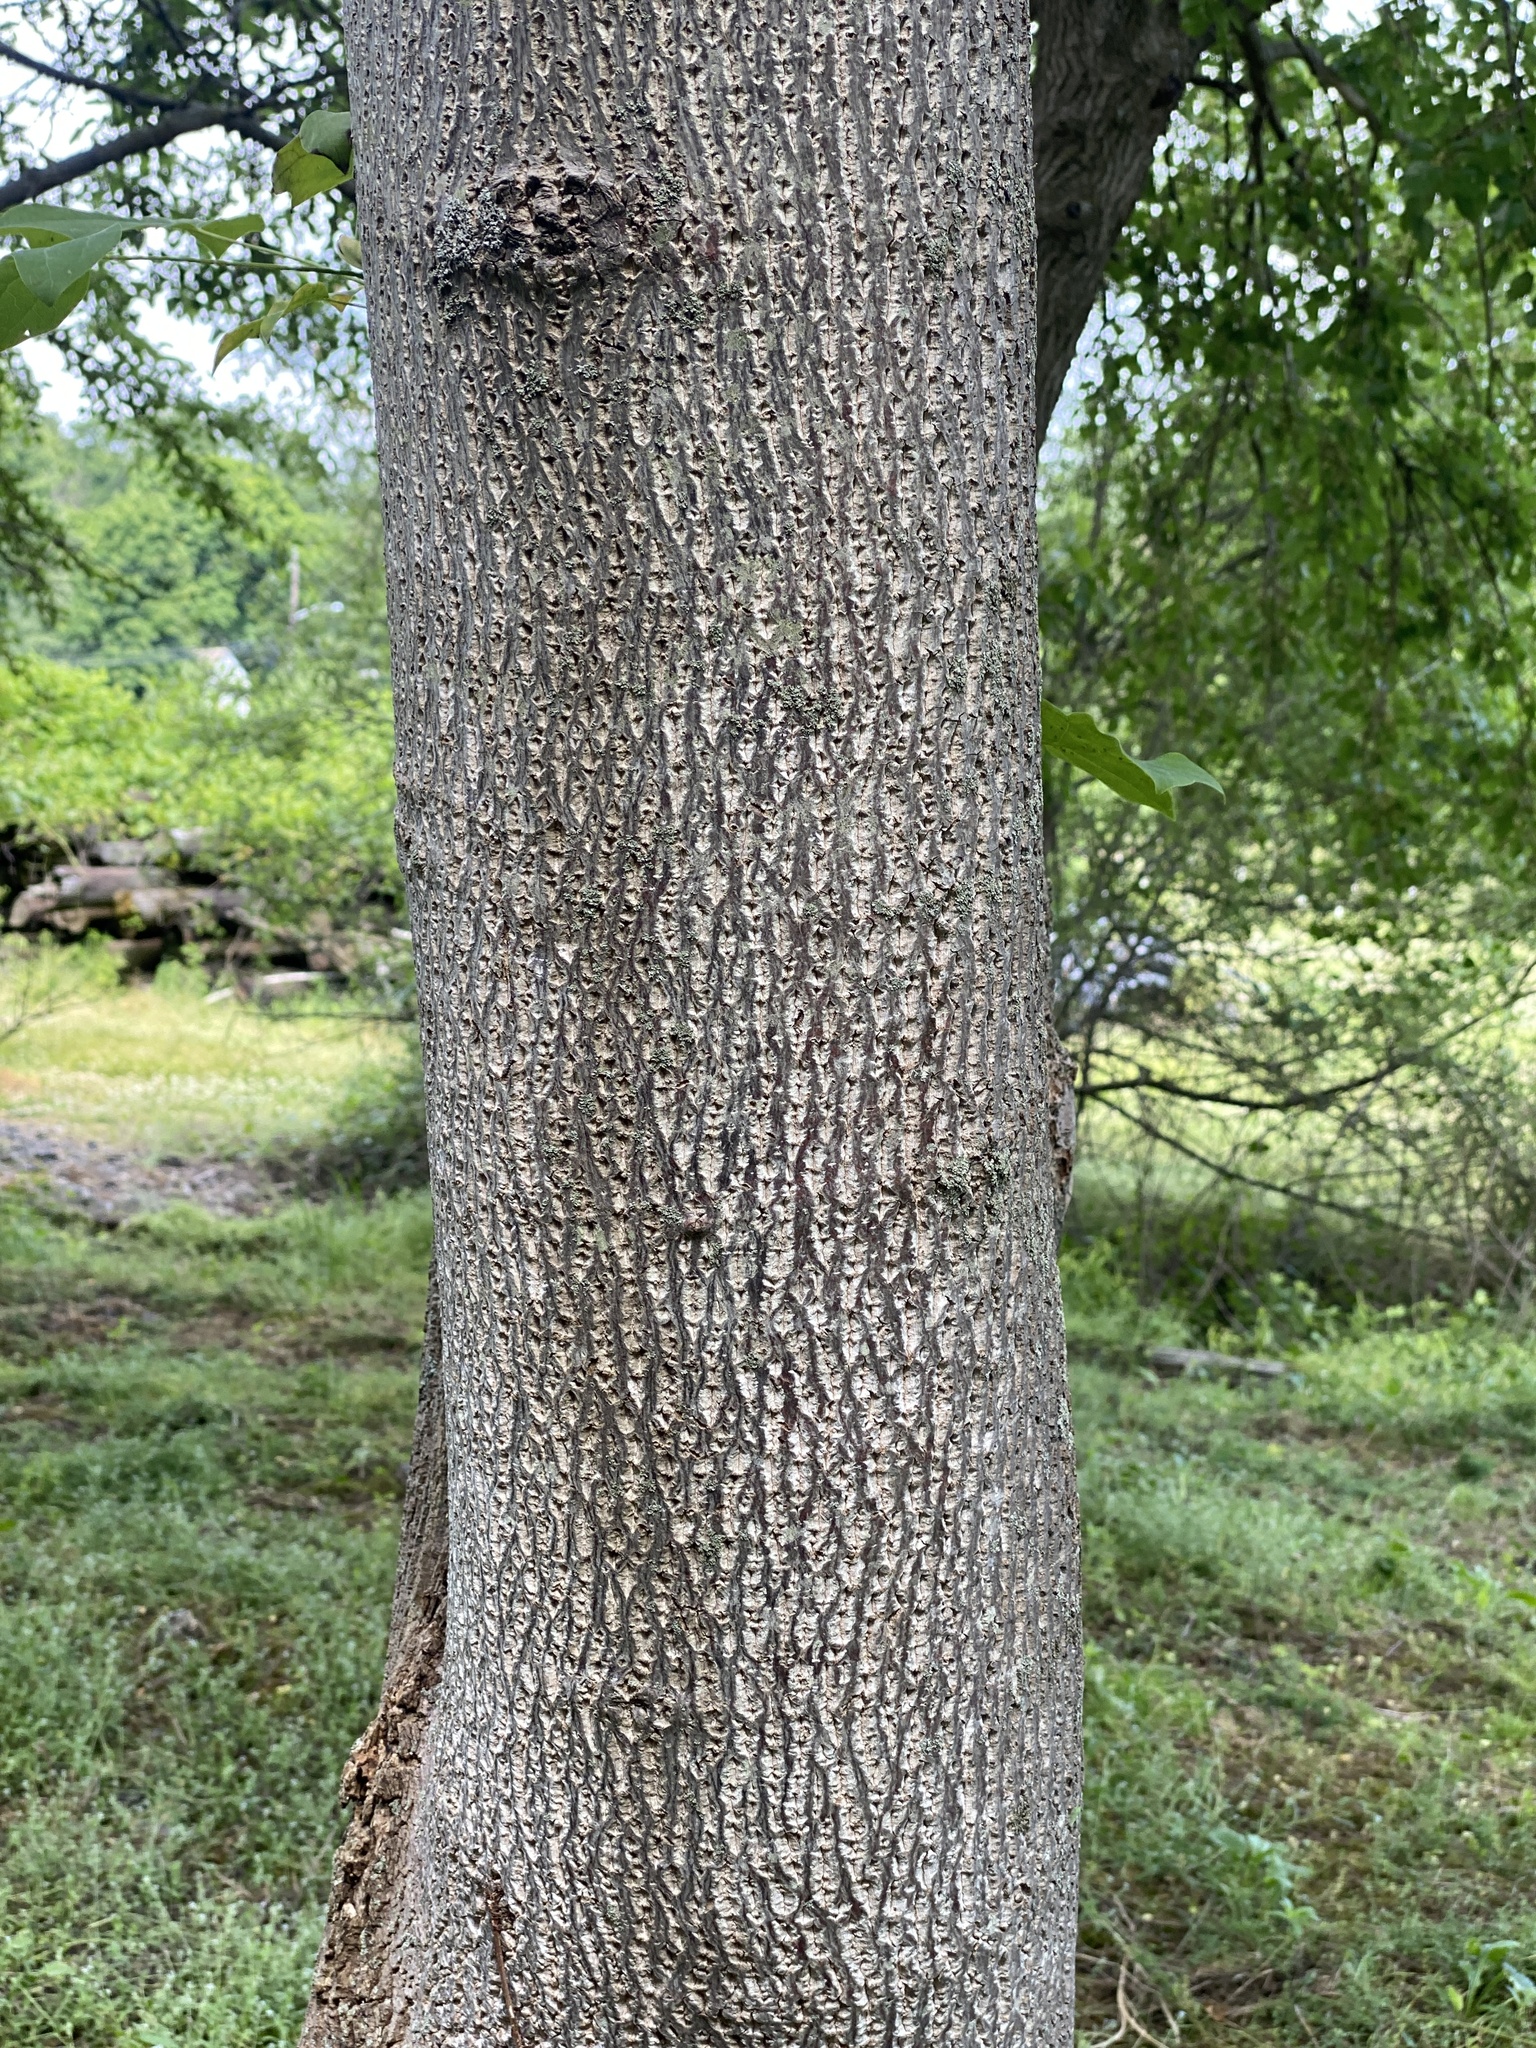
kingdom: Plantae
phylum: Tracheophyta
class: Magnoliopsida
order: Magnoliales
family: Magnoliaceae
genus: Liriodendron
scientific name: Liriodendron tulipifera
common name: Tulip tree
